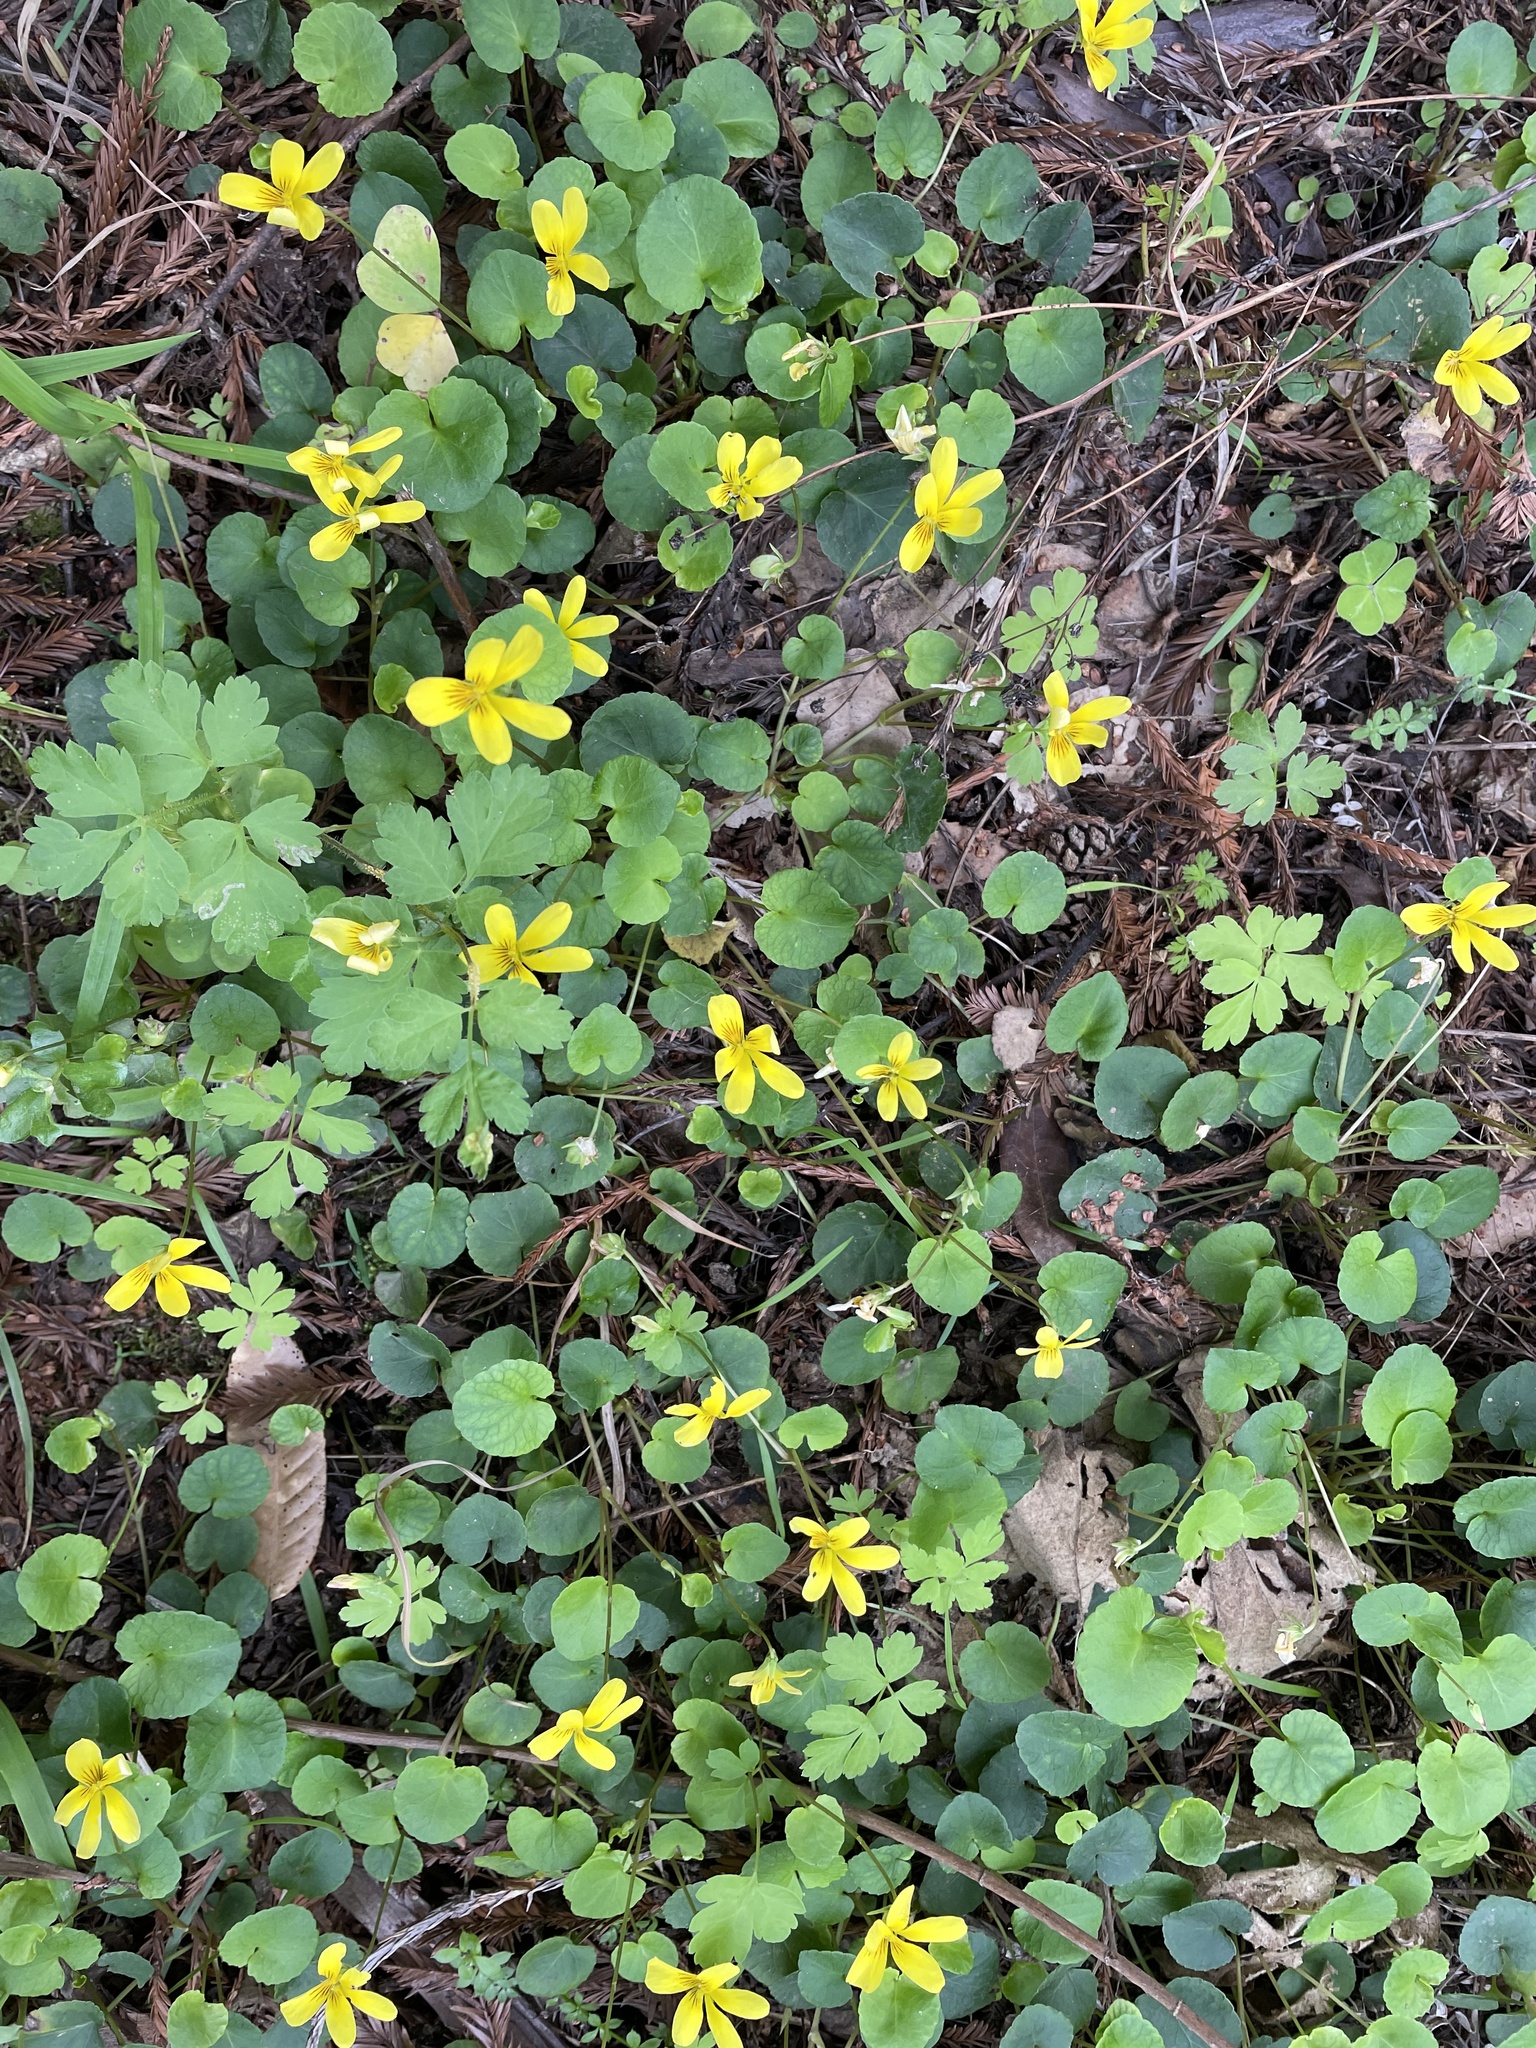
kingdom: Plantae
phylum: Tracheophyta
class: Magnoliopsida
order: Malpighiales
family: Violaceae
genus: Viola
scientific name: Viola sempervirens
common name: Evergreen violet
